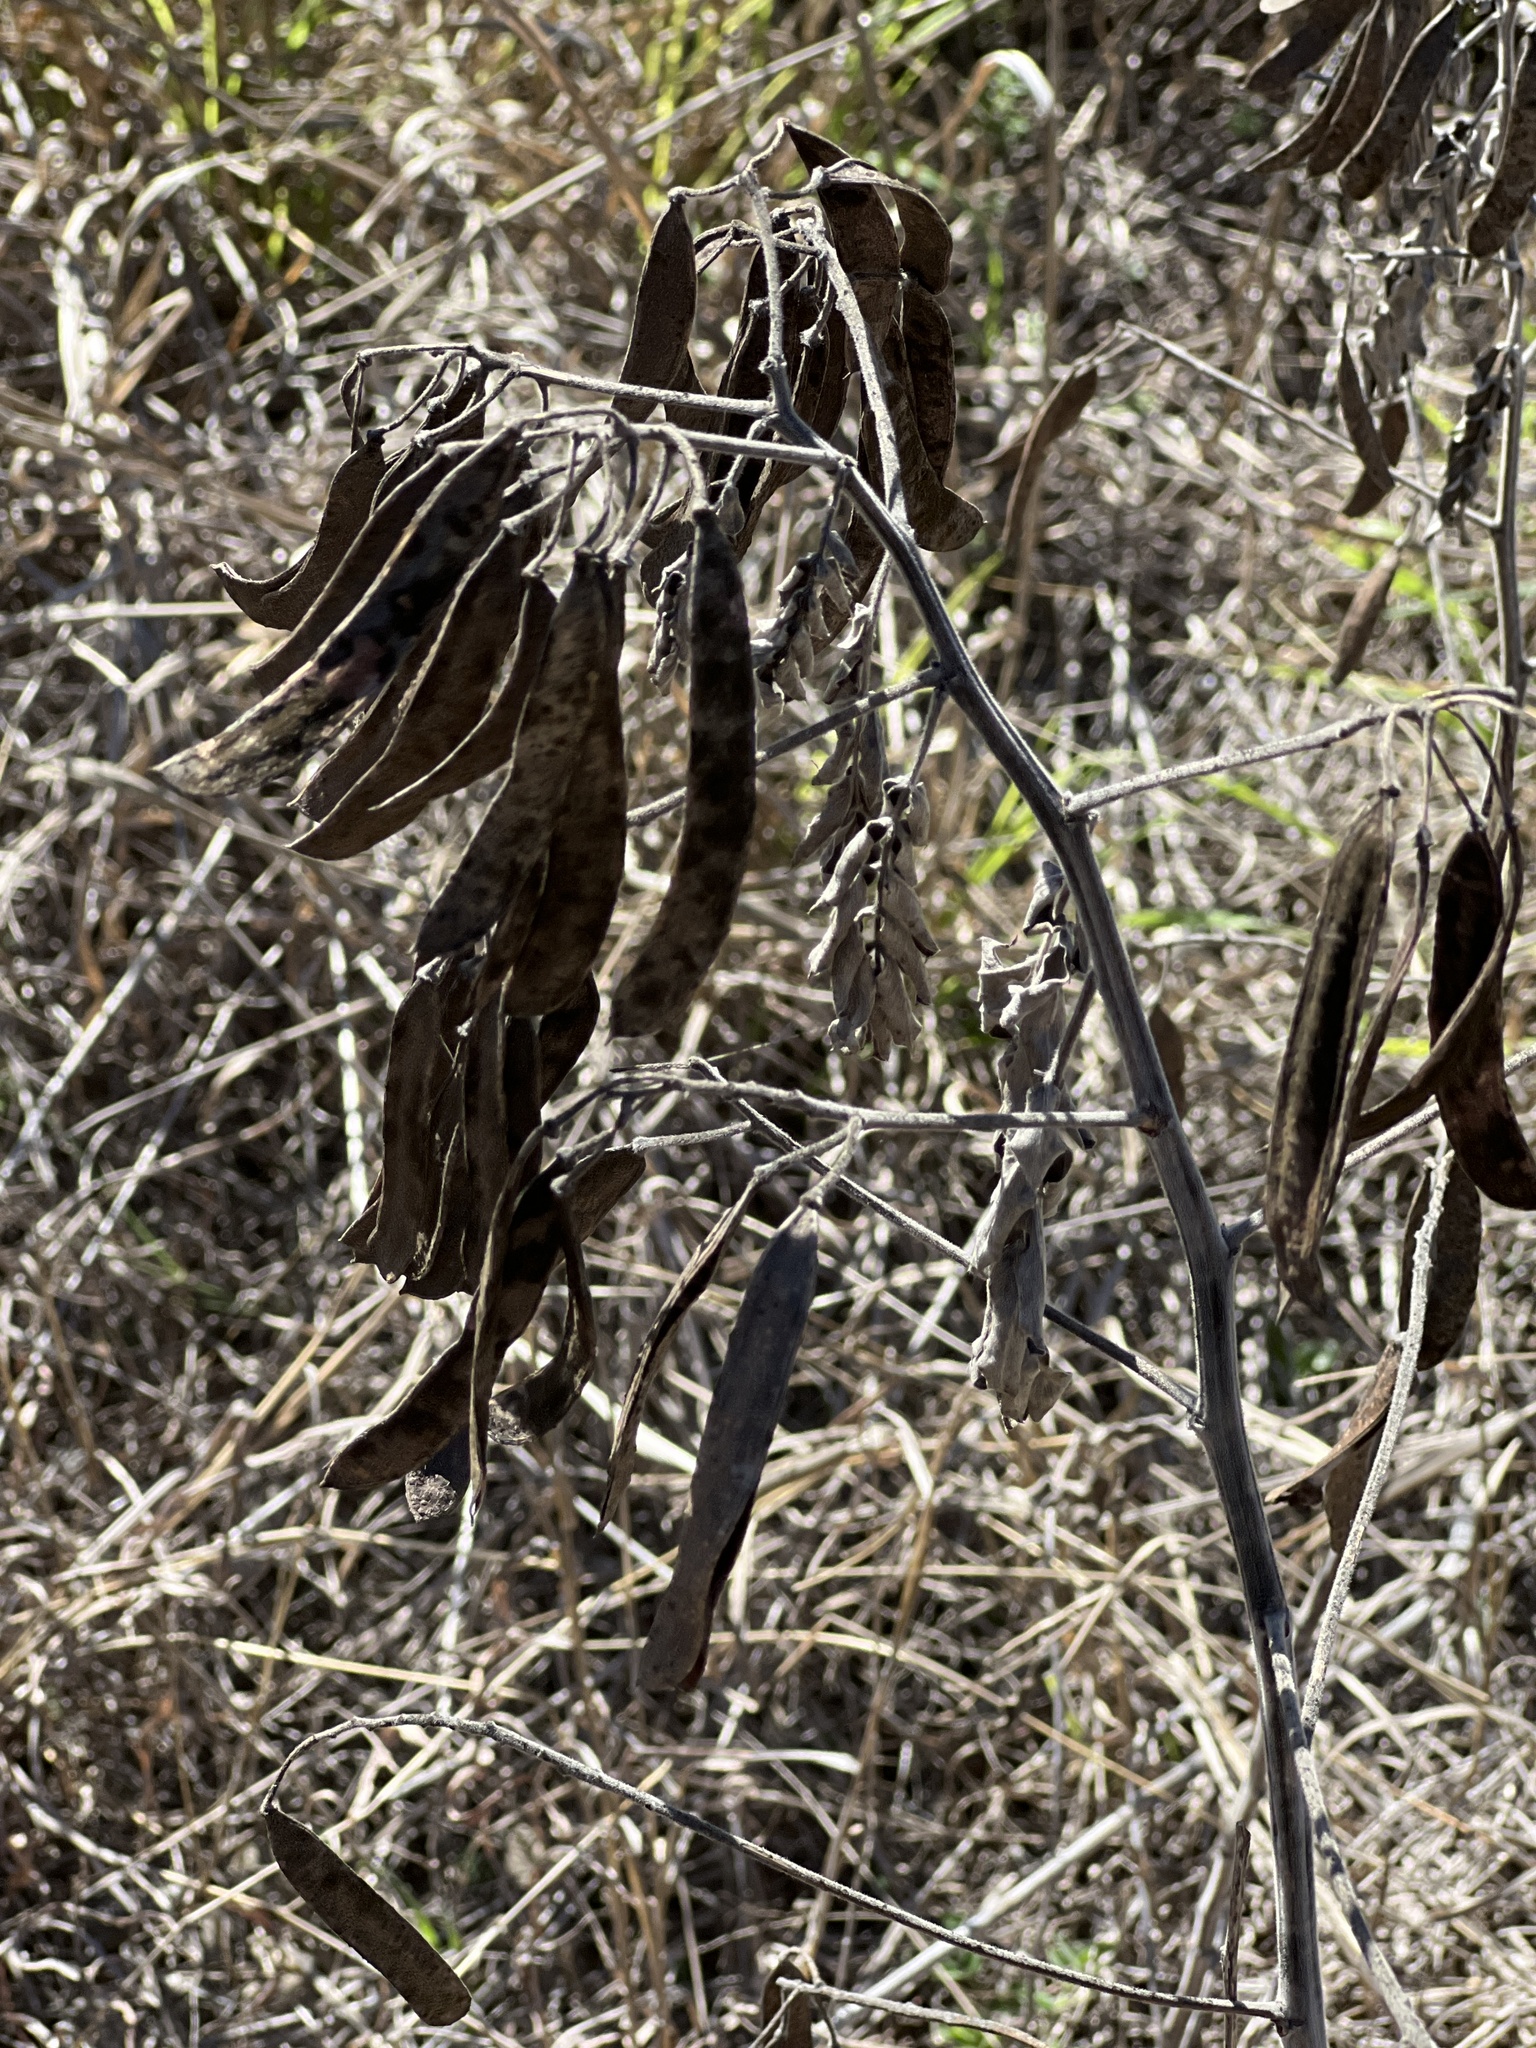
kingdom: Plantae
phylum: Tracheophyta
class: Magnoliopsida
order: Fabales
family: Fabaceae
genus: Senna
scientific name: Senna lindheimeriana
